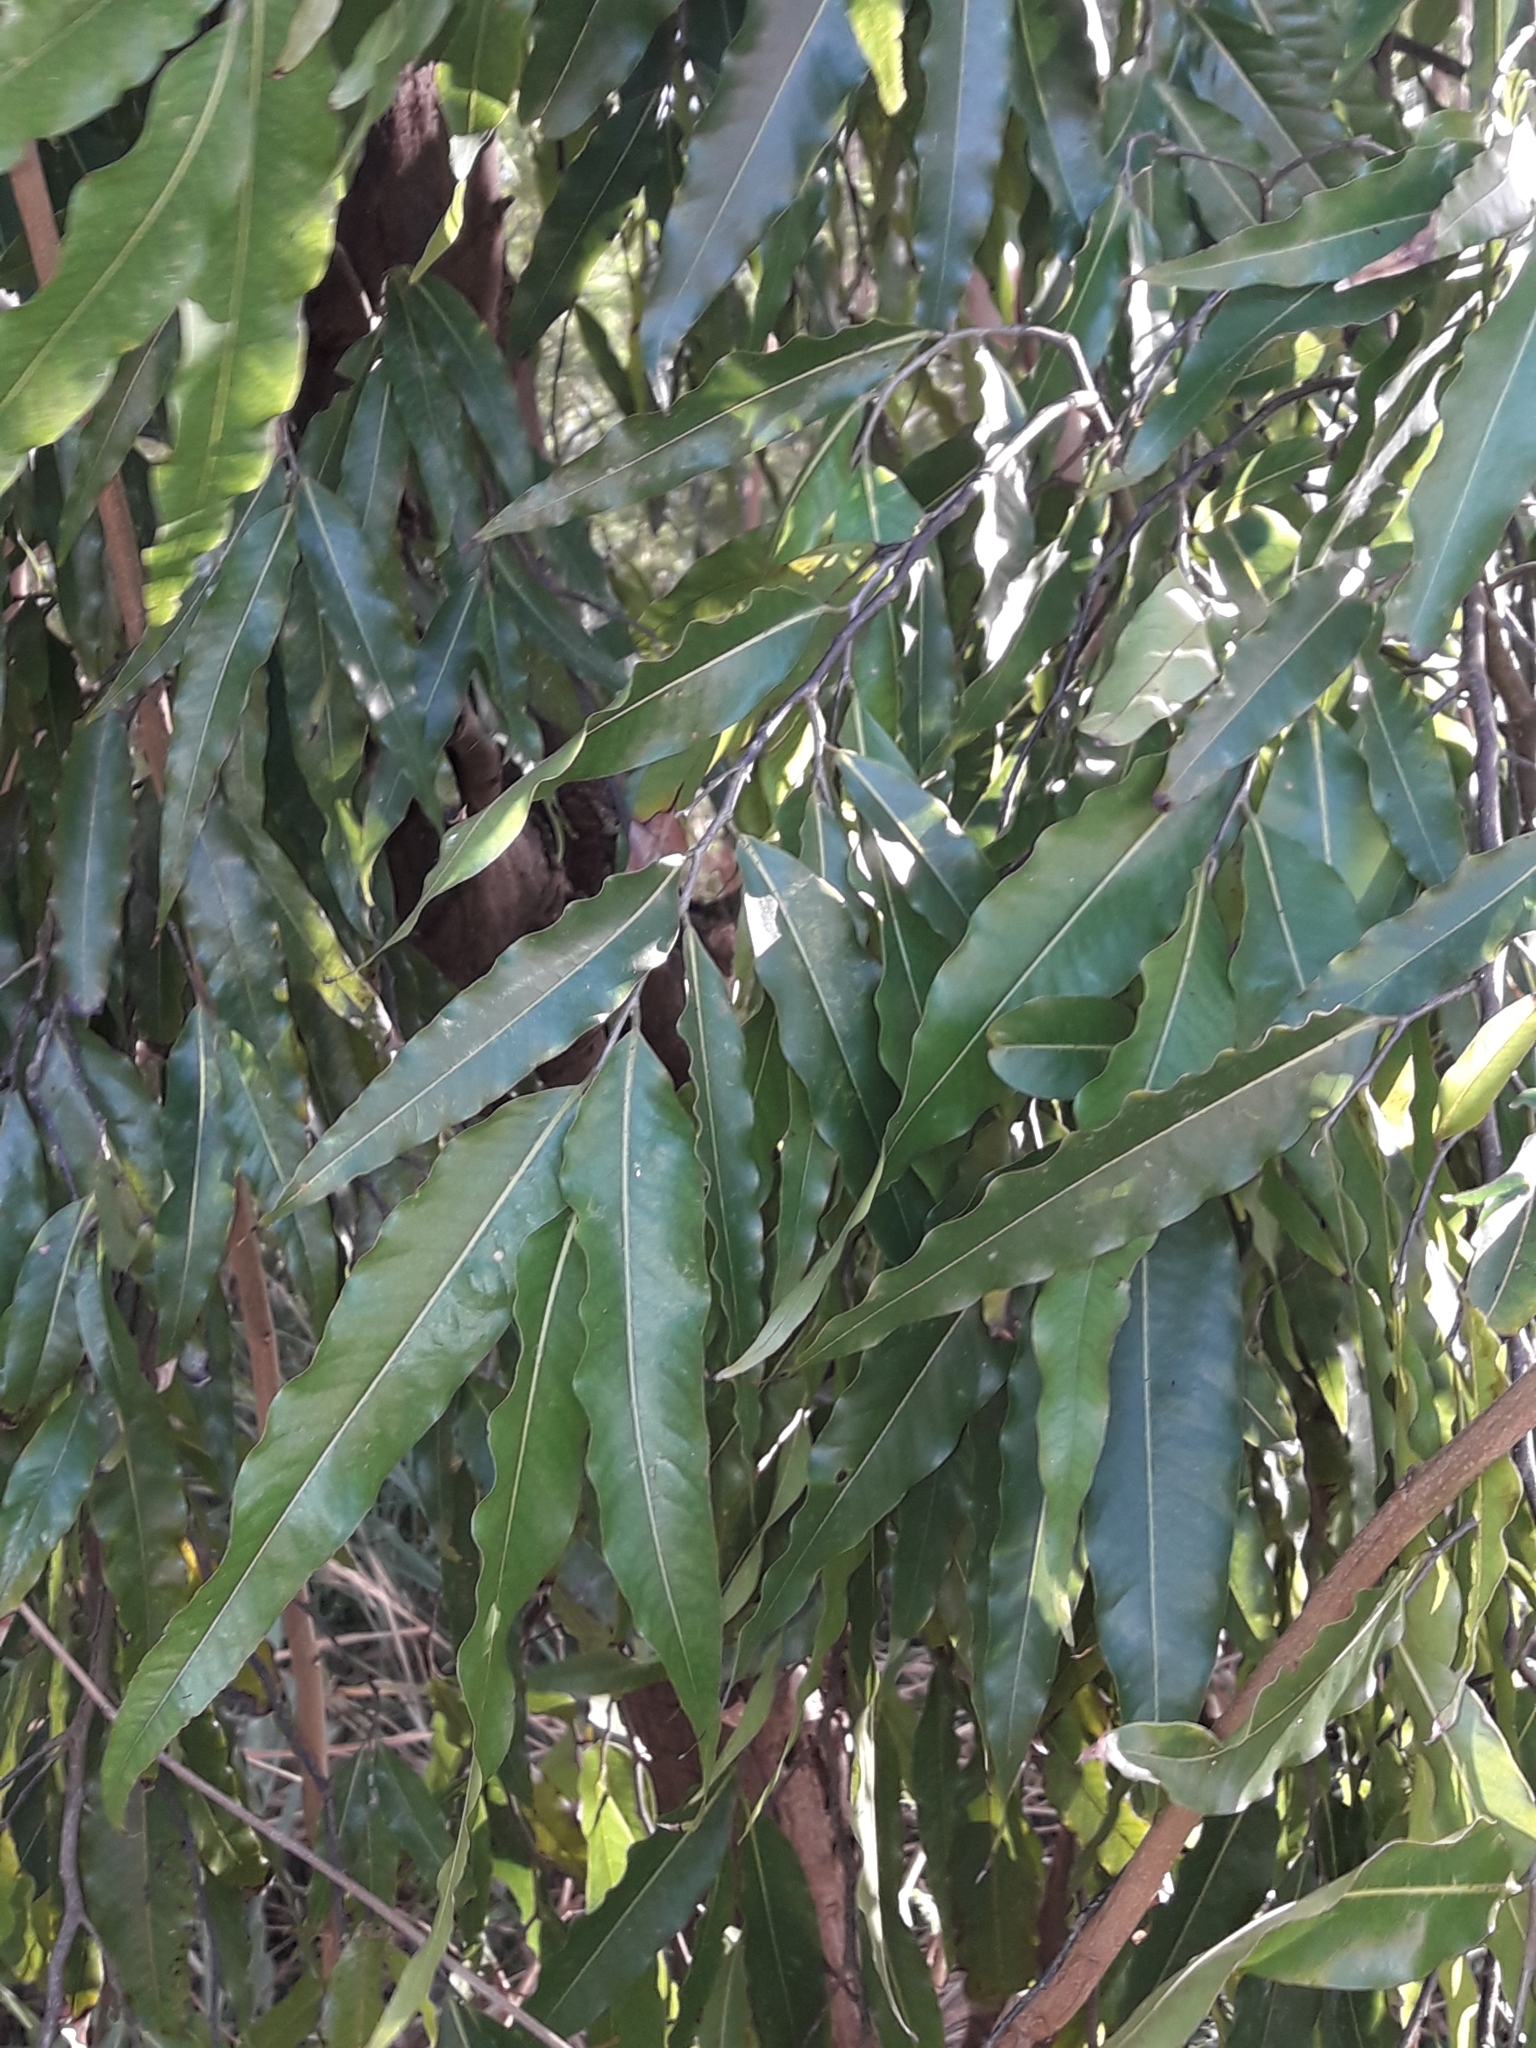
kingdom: Plantae
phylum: Tracheophyta
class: Magnoliopsida
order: Magnoliales
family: Annonaceae
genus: Polyalthia
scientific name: Polyalthia longifolia
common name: Cemetery-tree
